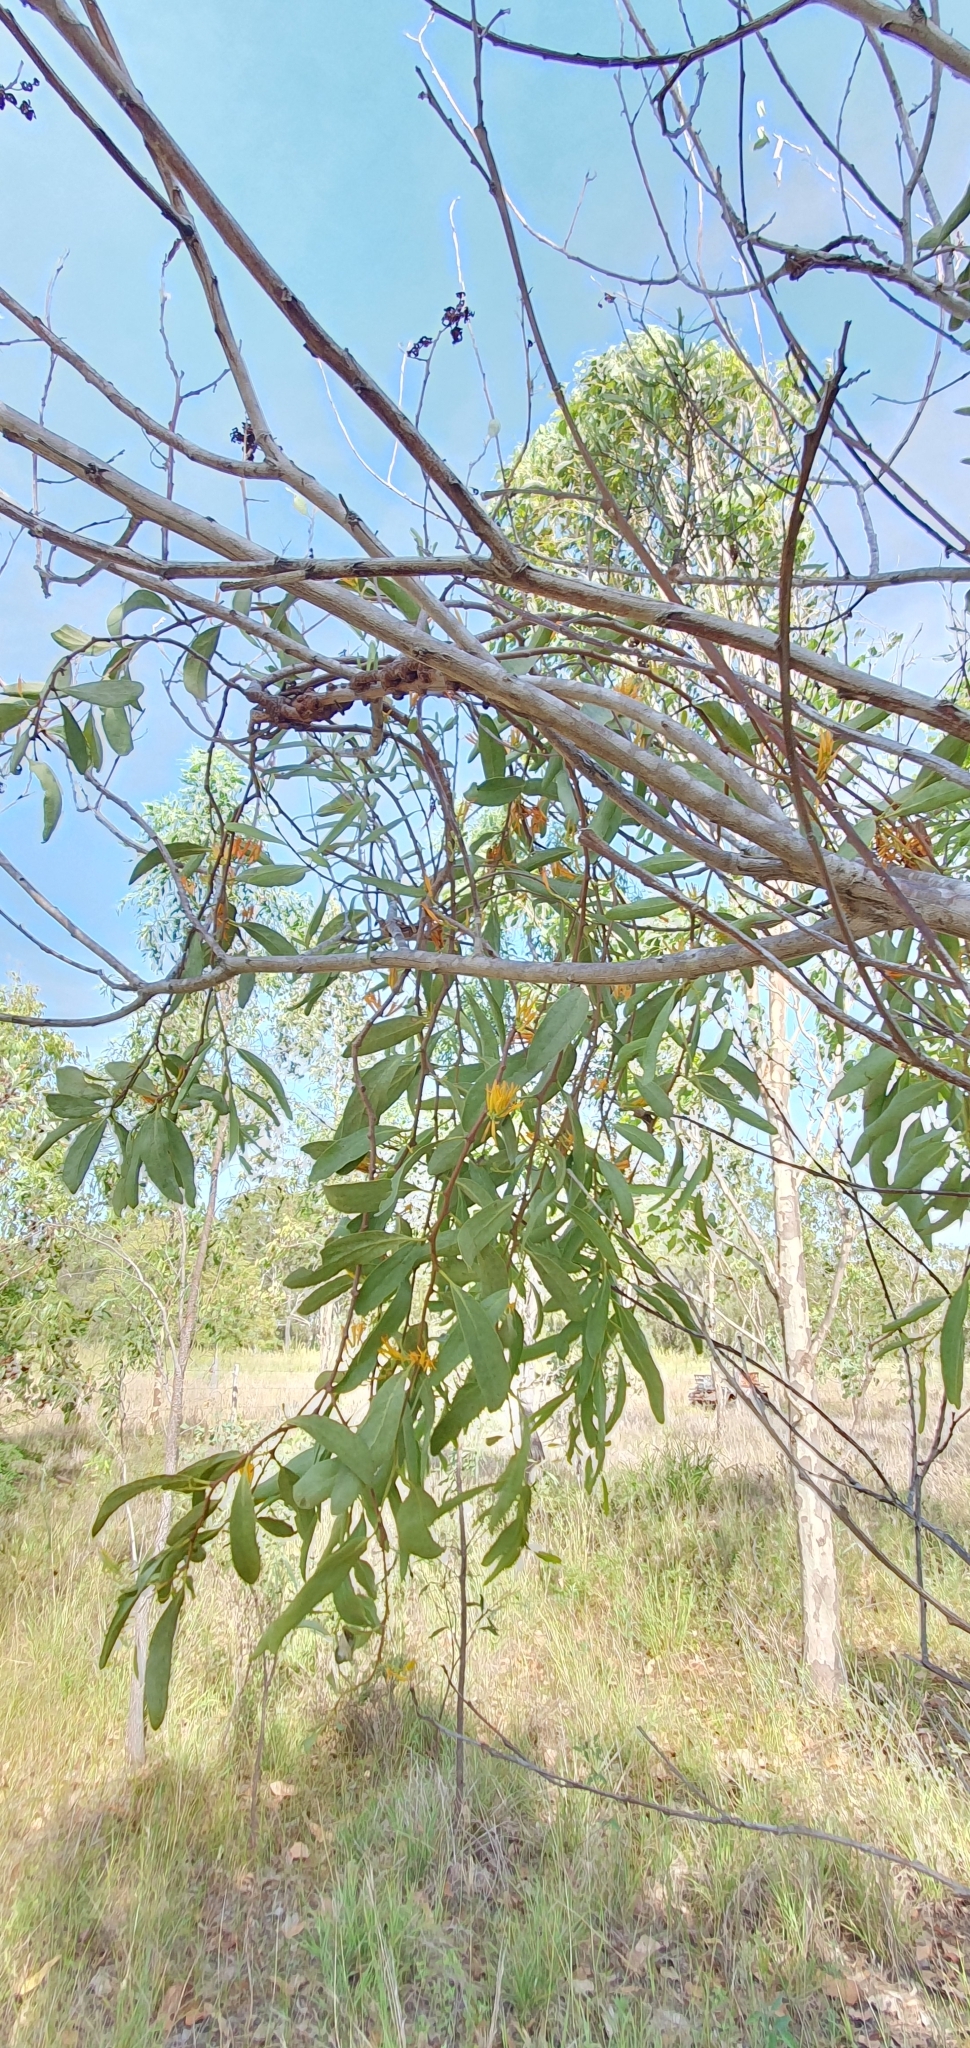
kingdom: Plantae
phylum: Tracheophyta
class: Magnoliopsida
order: Santalales
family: Loranthaceae
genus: Dendrophthoe
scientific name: Dendrophthoe glabrescens
